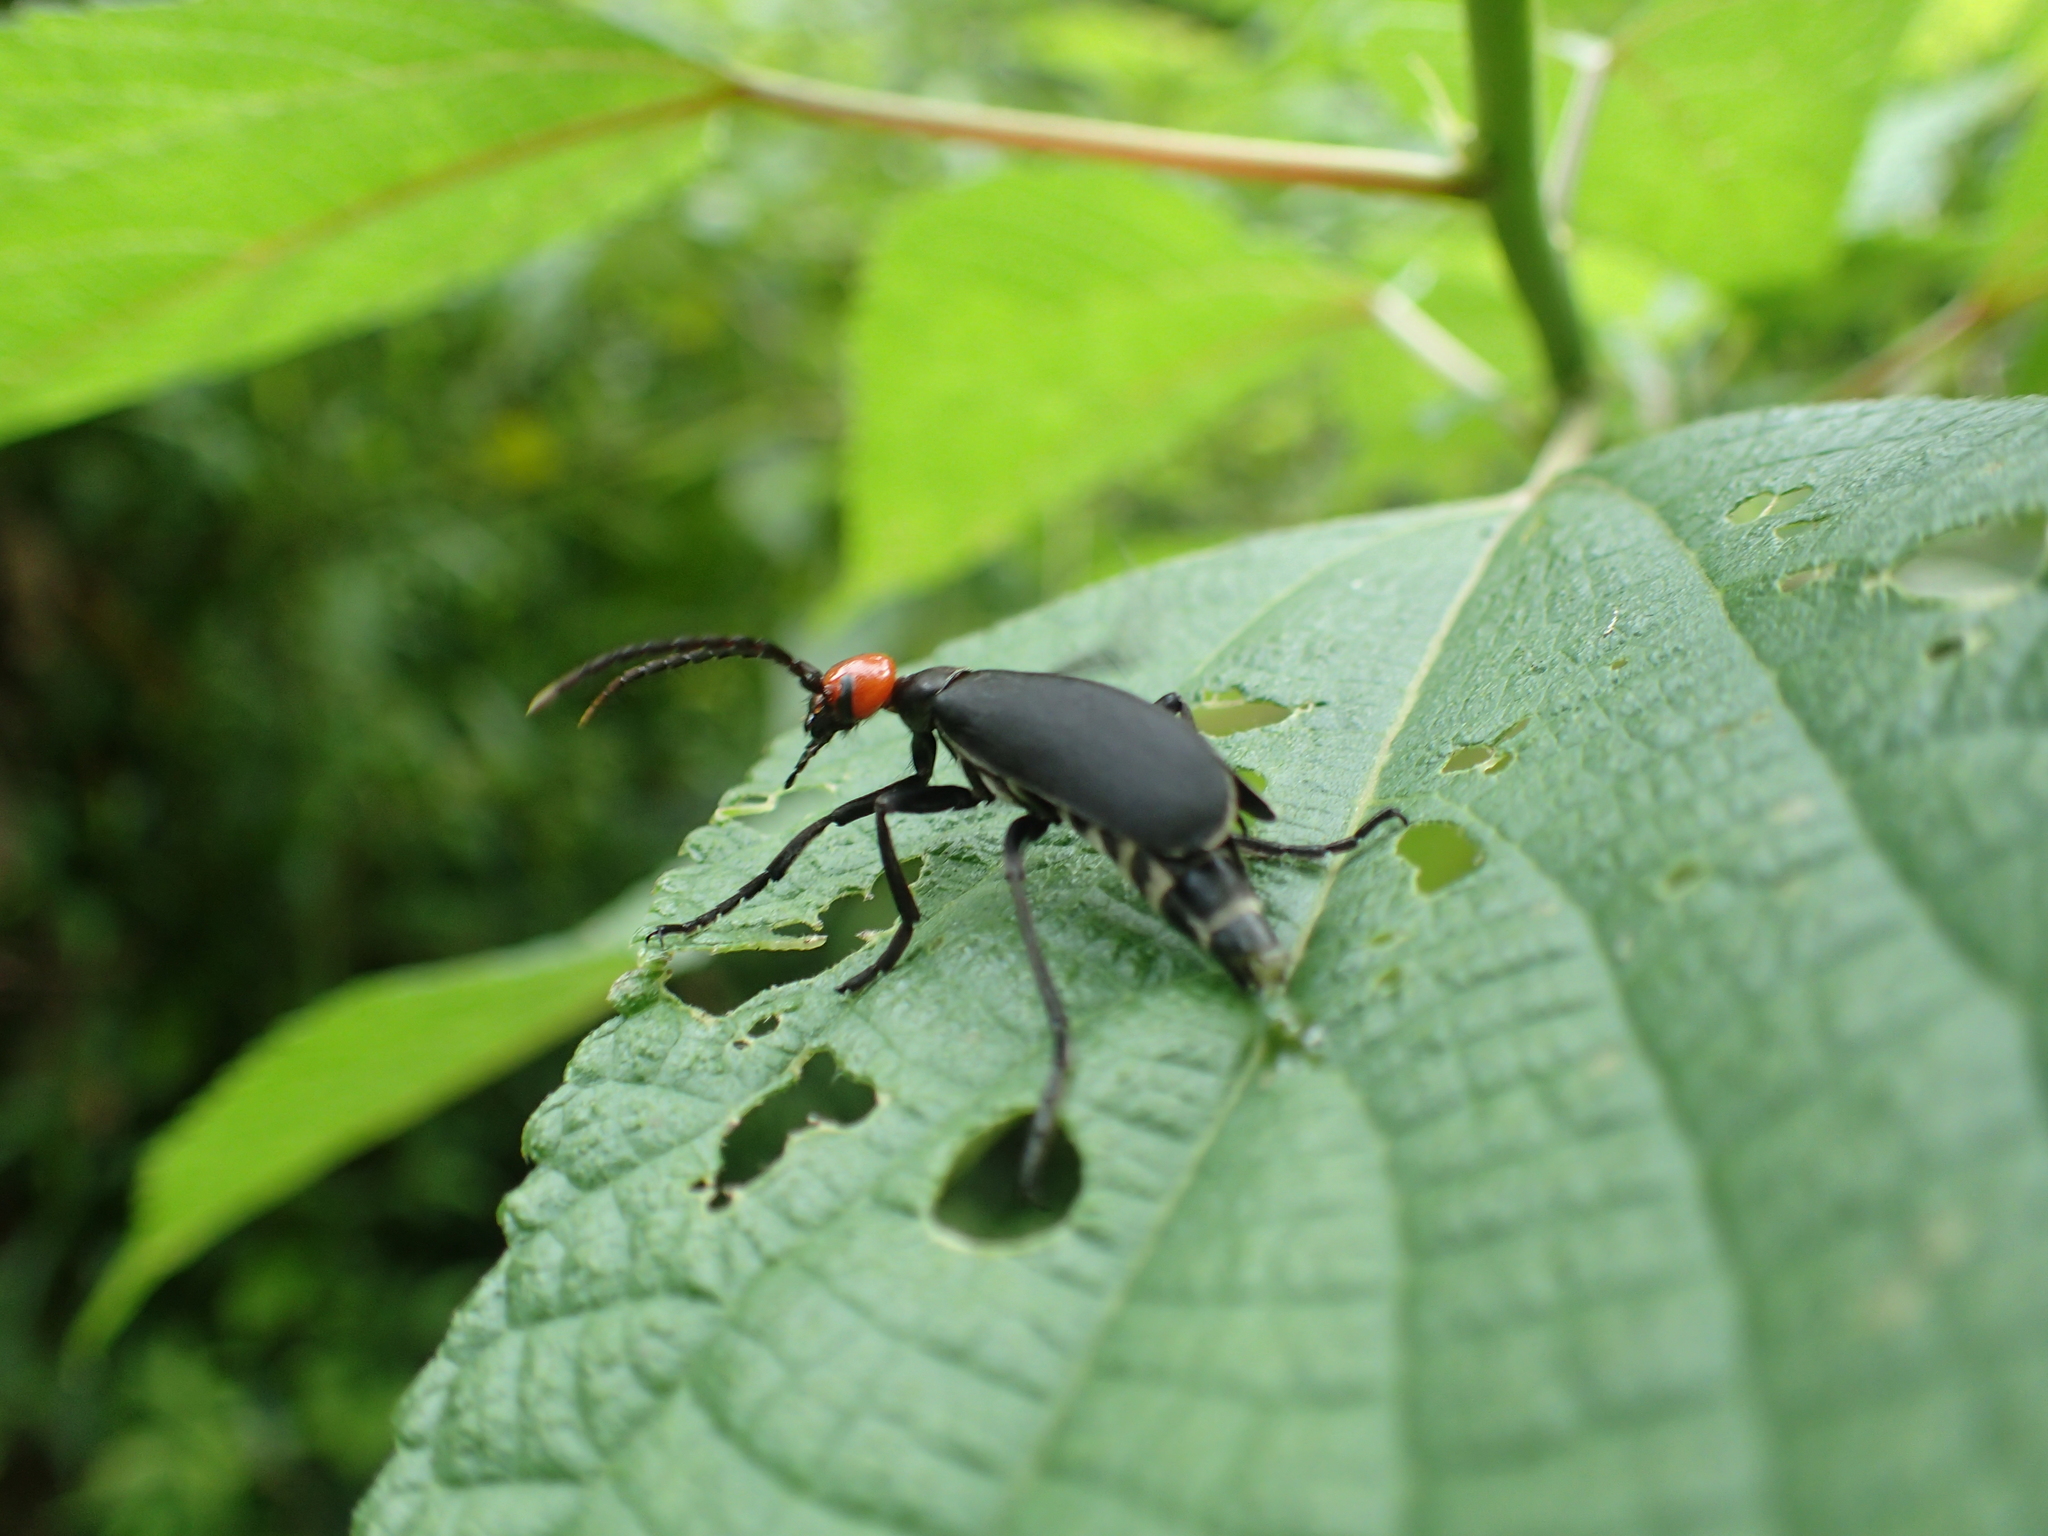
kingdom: Animalia
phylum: Arthropoda
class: Insecta
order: Coleoptera
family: Meloidae
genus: Epicauta
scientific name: Epicauta hirticornis
